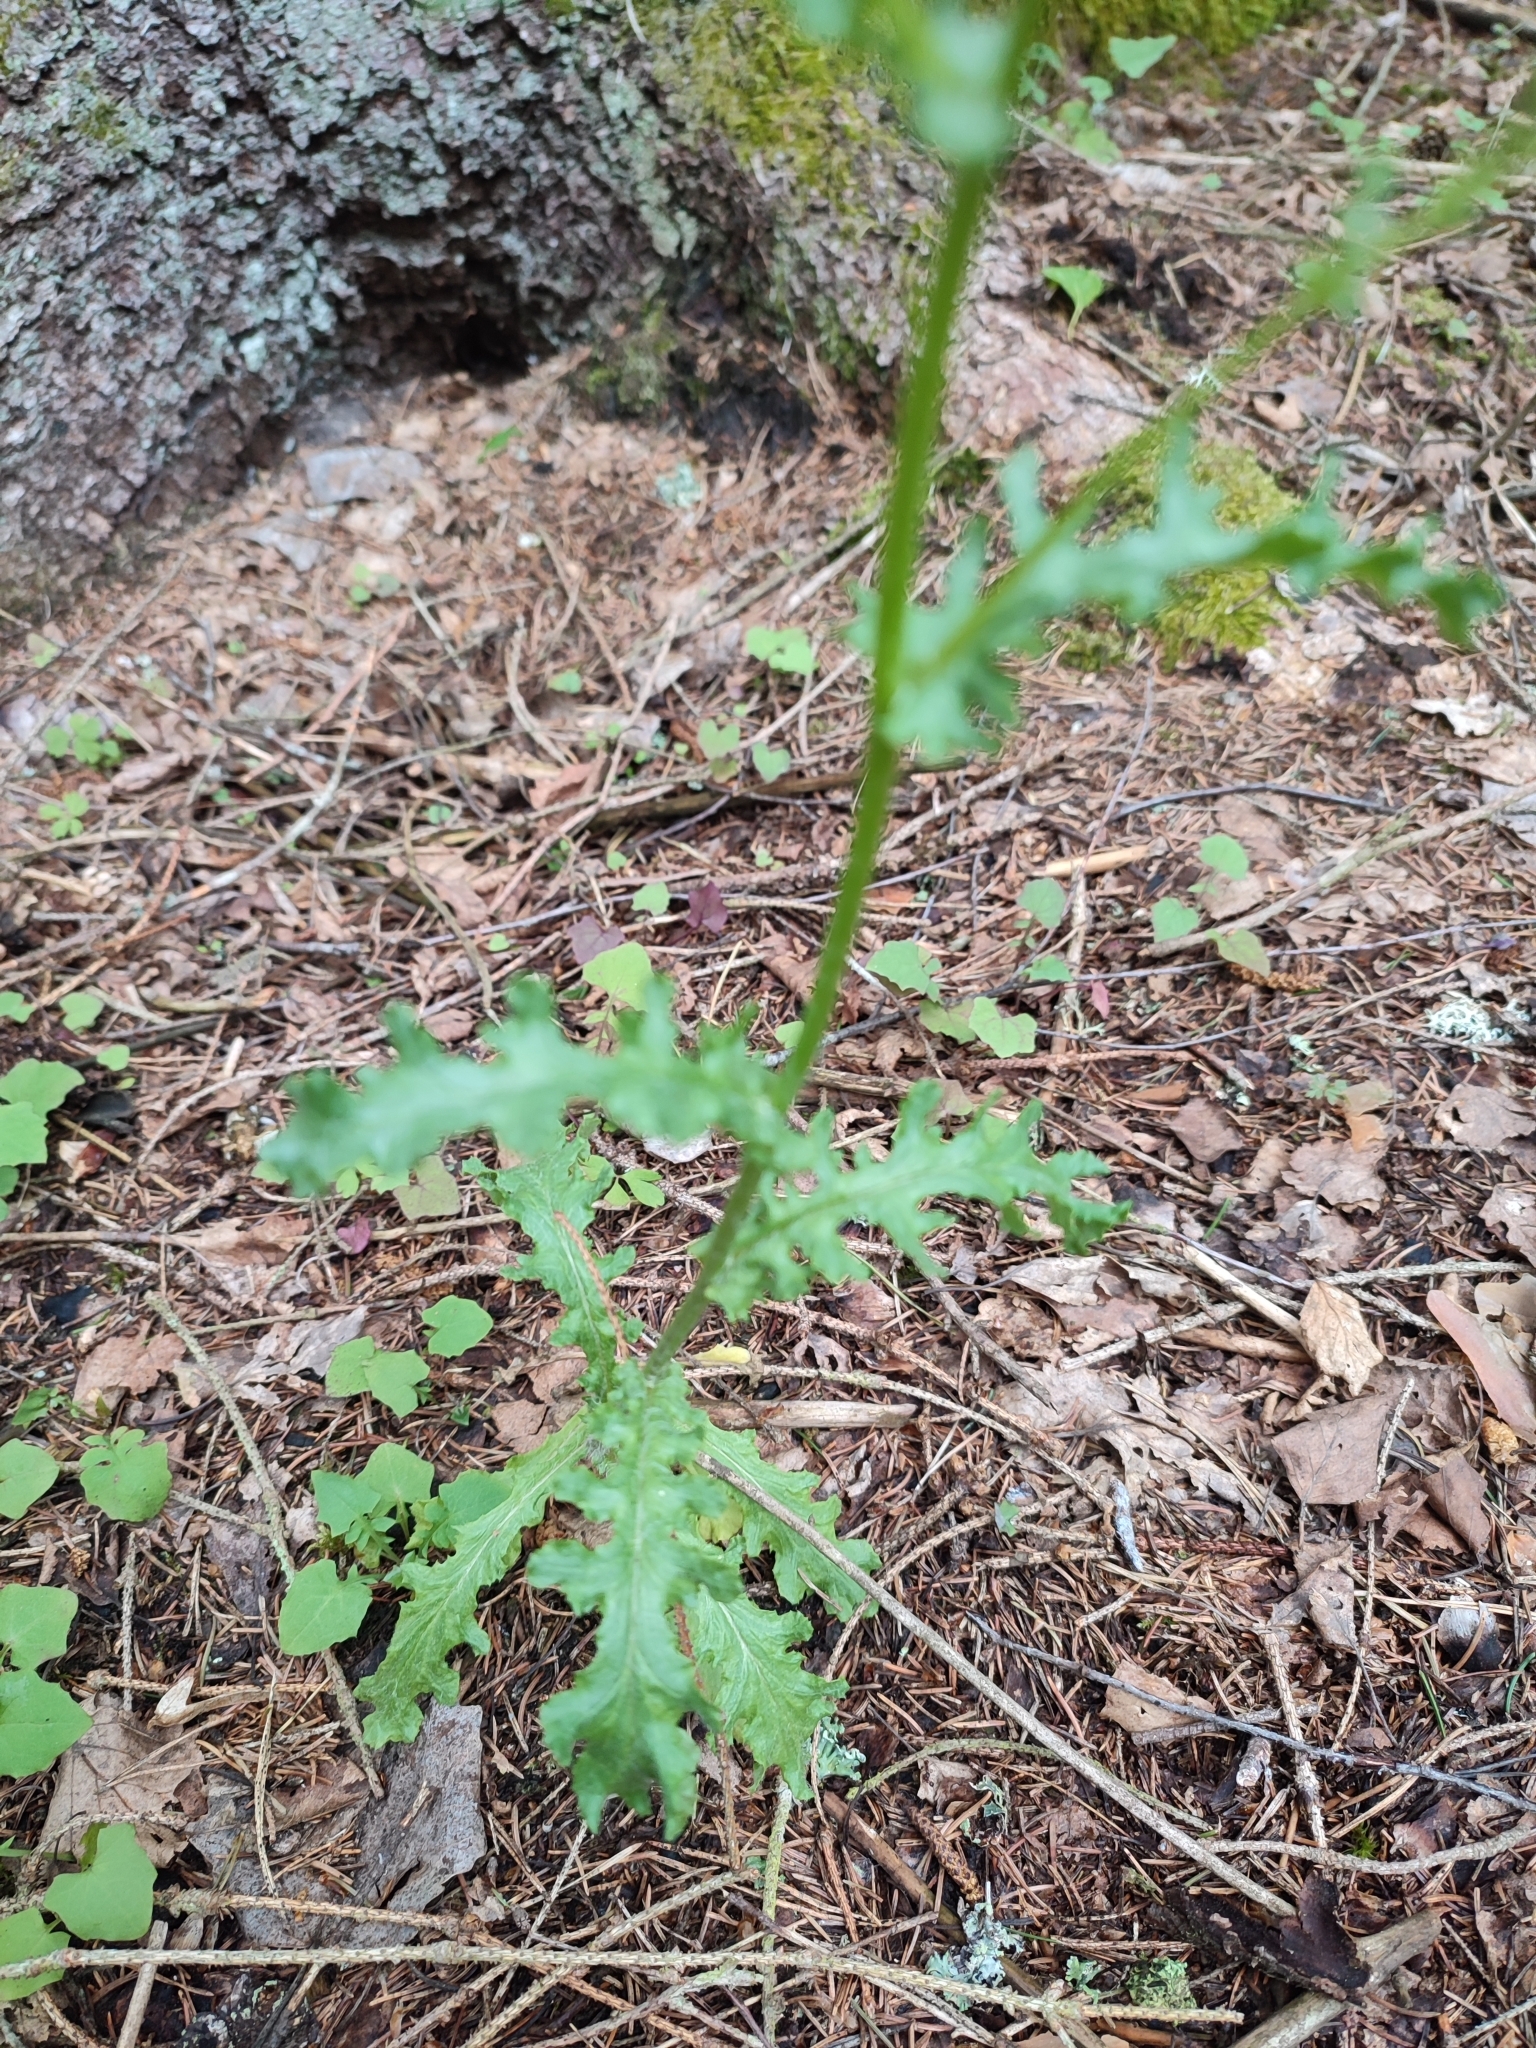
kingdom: Plantae
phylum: Tracheophyta
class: Magnoliopsida
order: Asterales
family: Asteraceae
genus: Senecio
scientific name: Senecio vernalis
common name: Eastern groundsel
